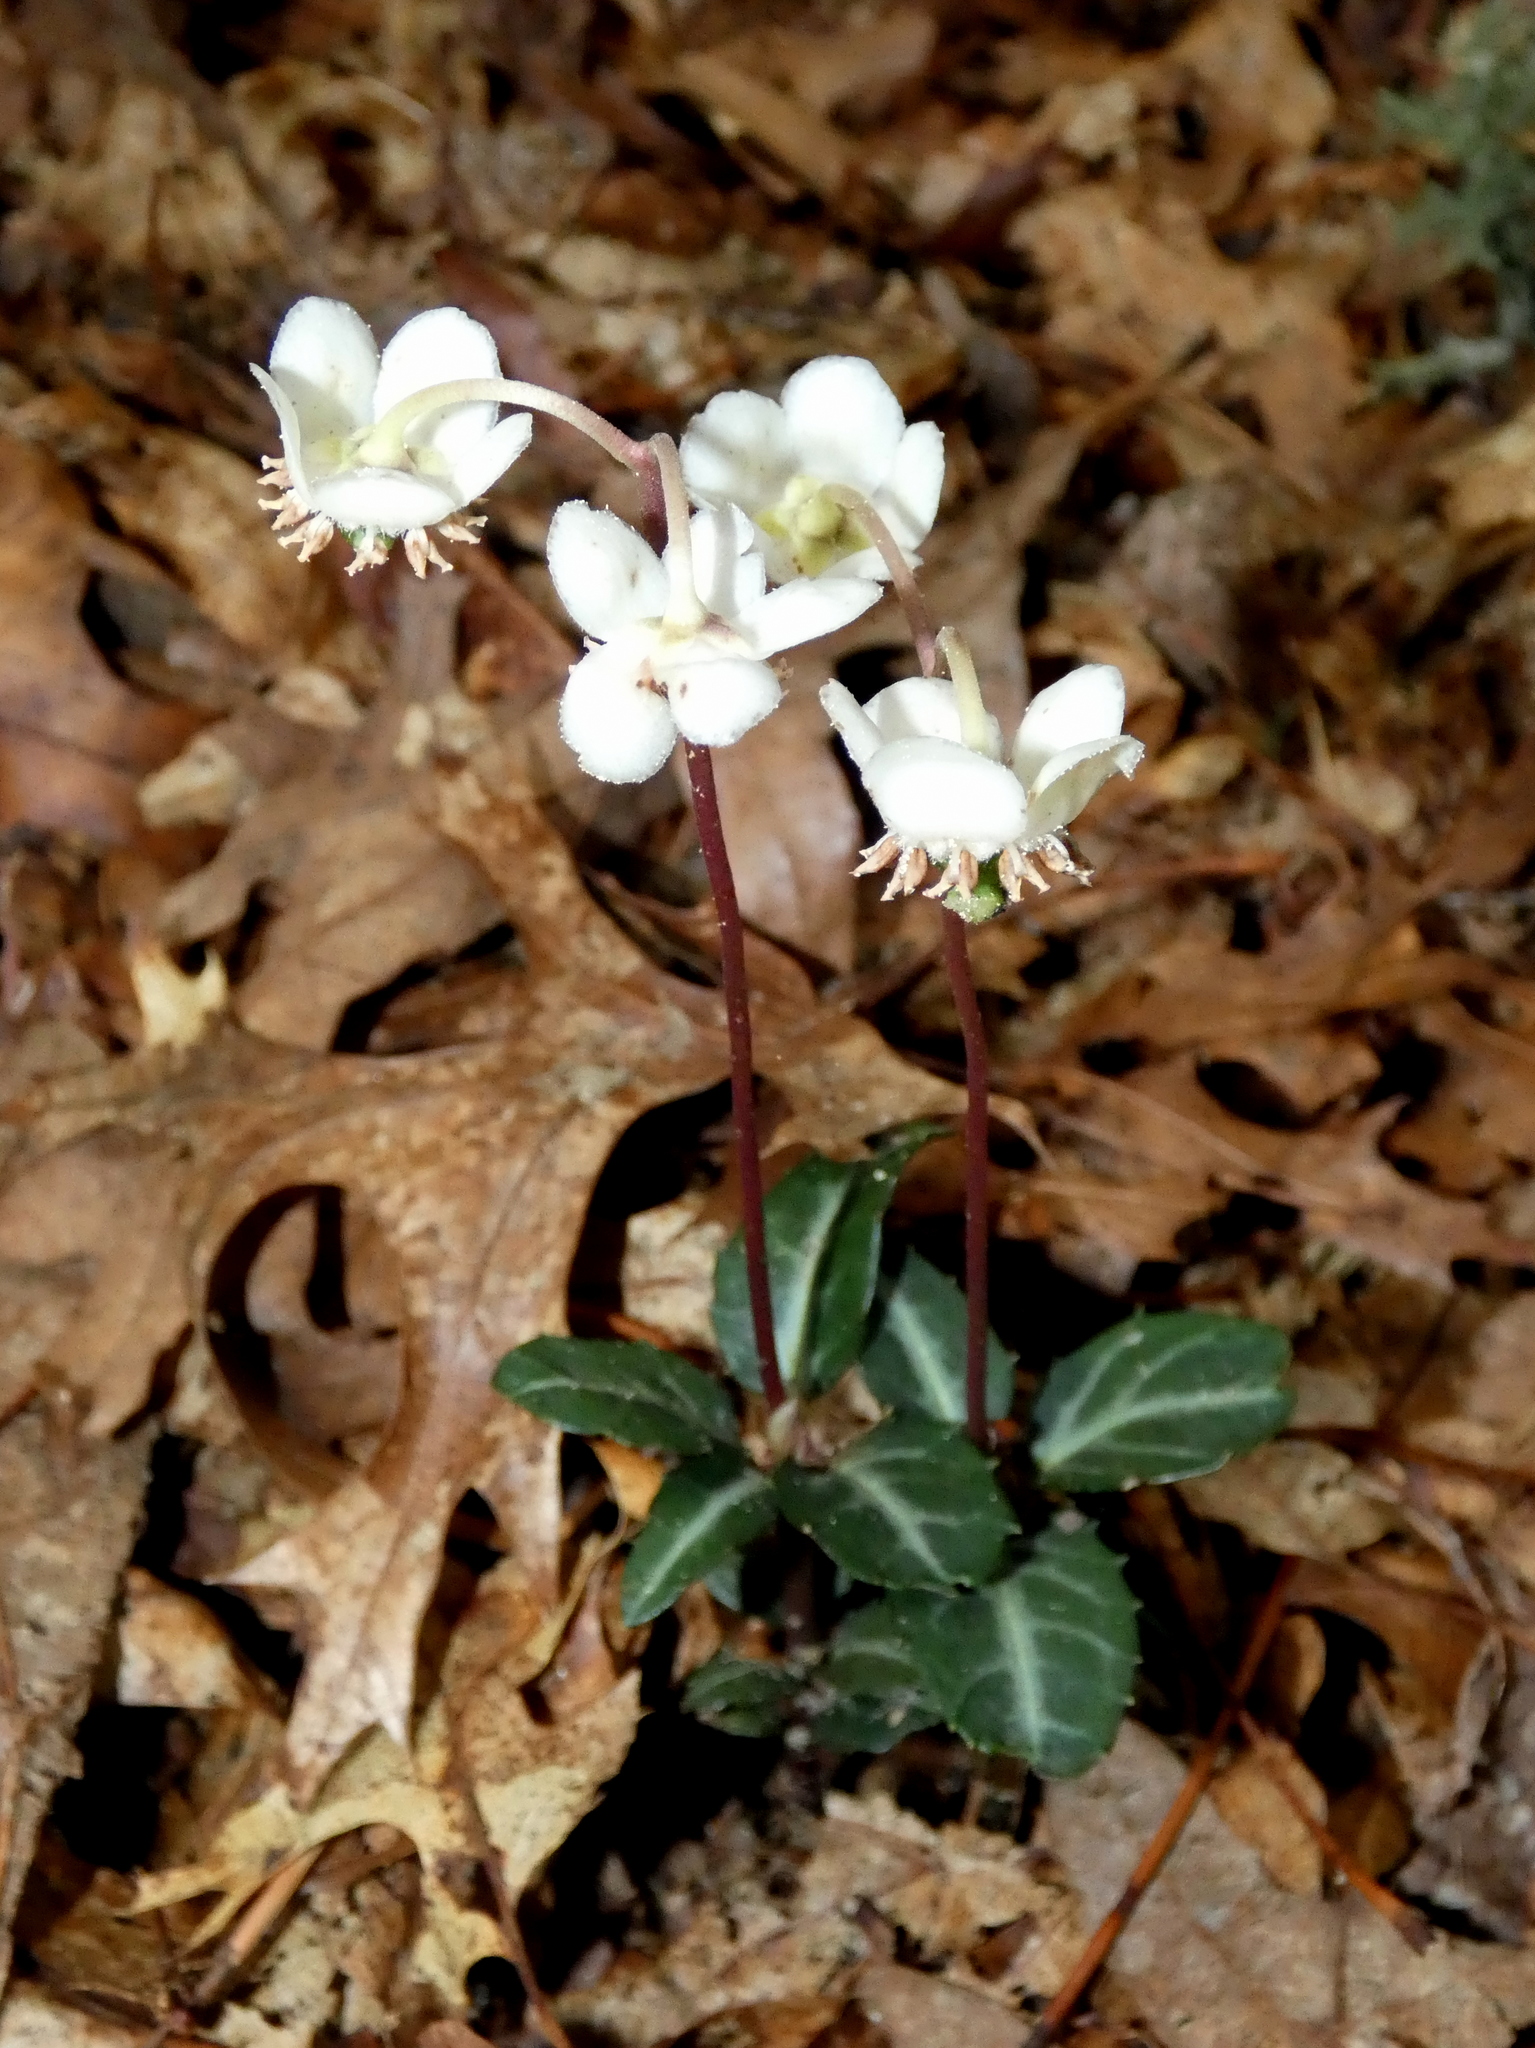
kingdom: Plantae
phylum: Tracheophyta
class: Magnoliopsida
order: Ericales
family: Ericaceae
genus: Chimaphila
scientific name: Chimaphila maculata
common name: Spotted pipsissewa
